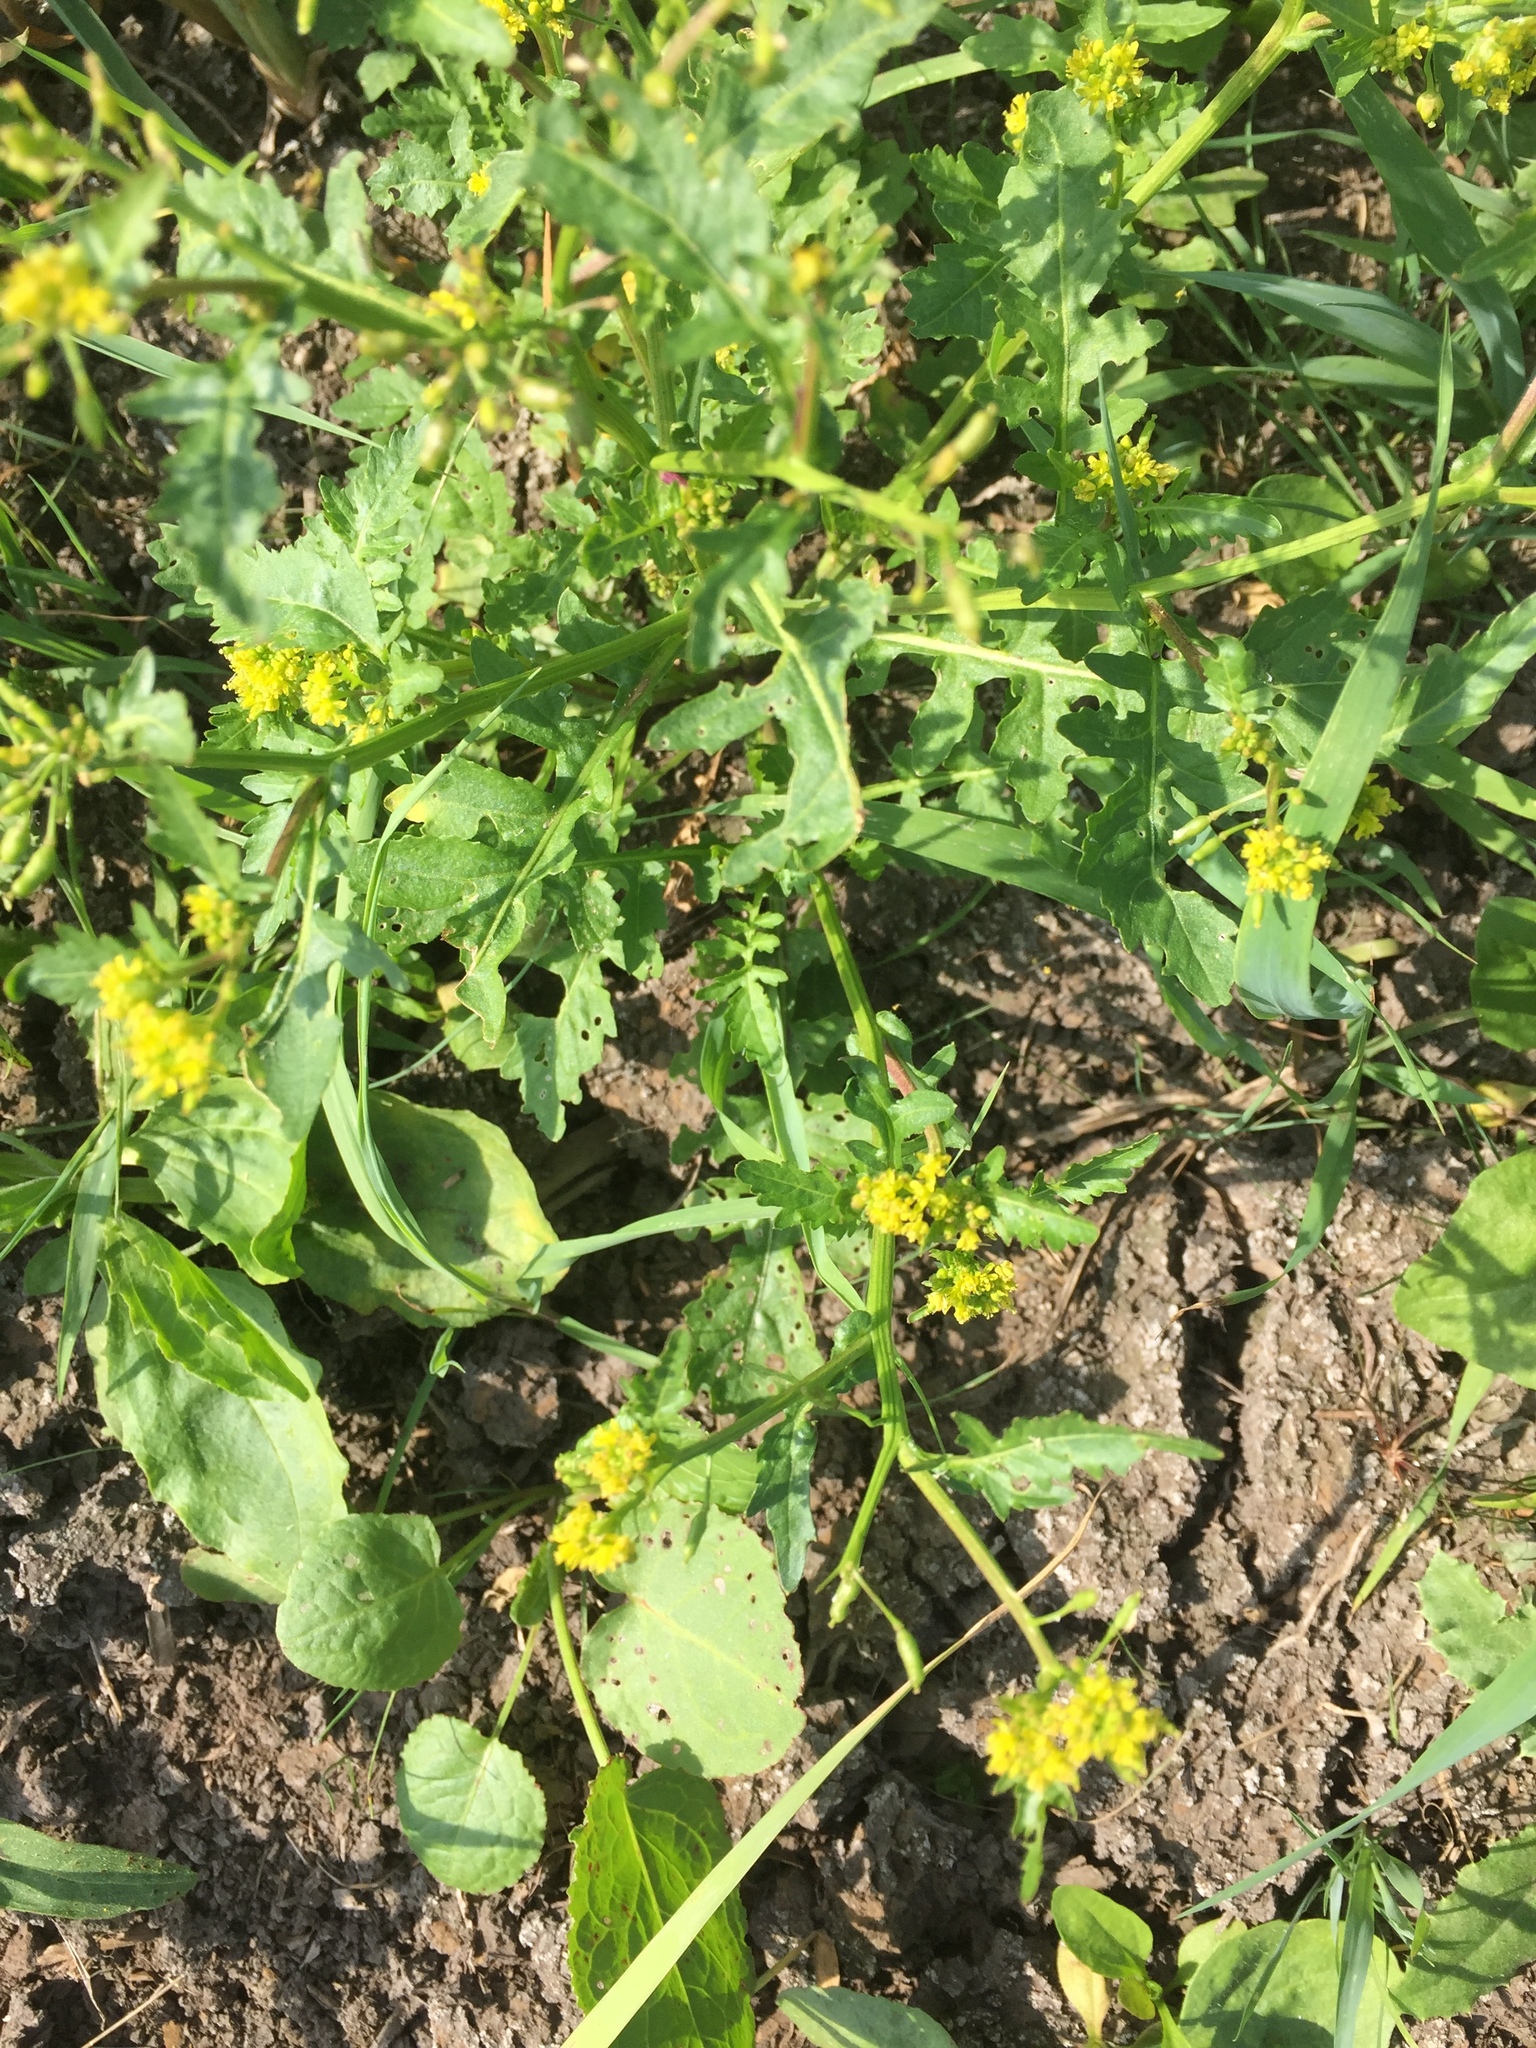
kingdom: Plantae
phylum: Tracheophyta
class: Magnoliopsida
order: Brassicales
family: Brassicaceae
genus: Rorippa
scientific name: Rorippa palustris
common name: Marsh yellow-cress
